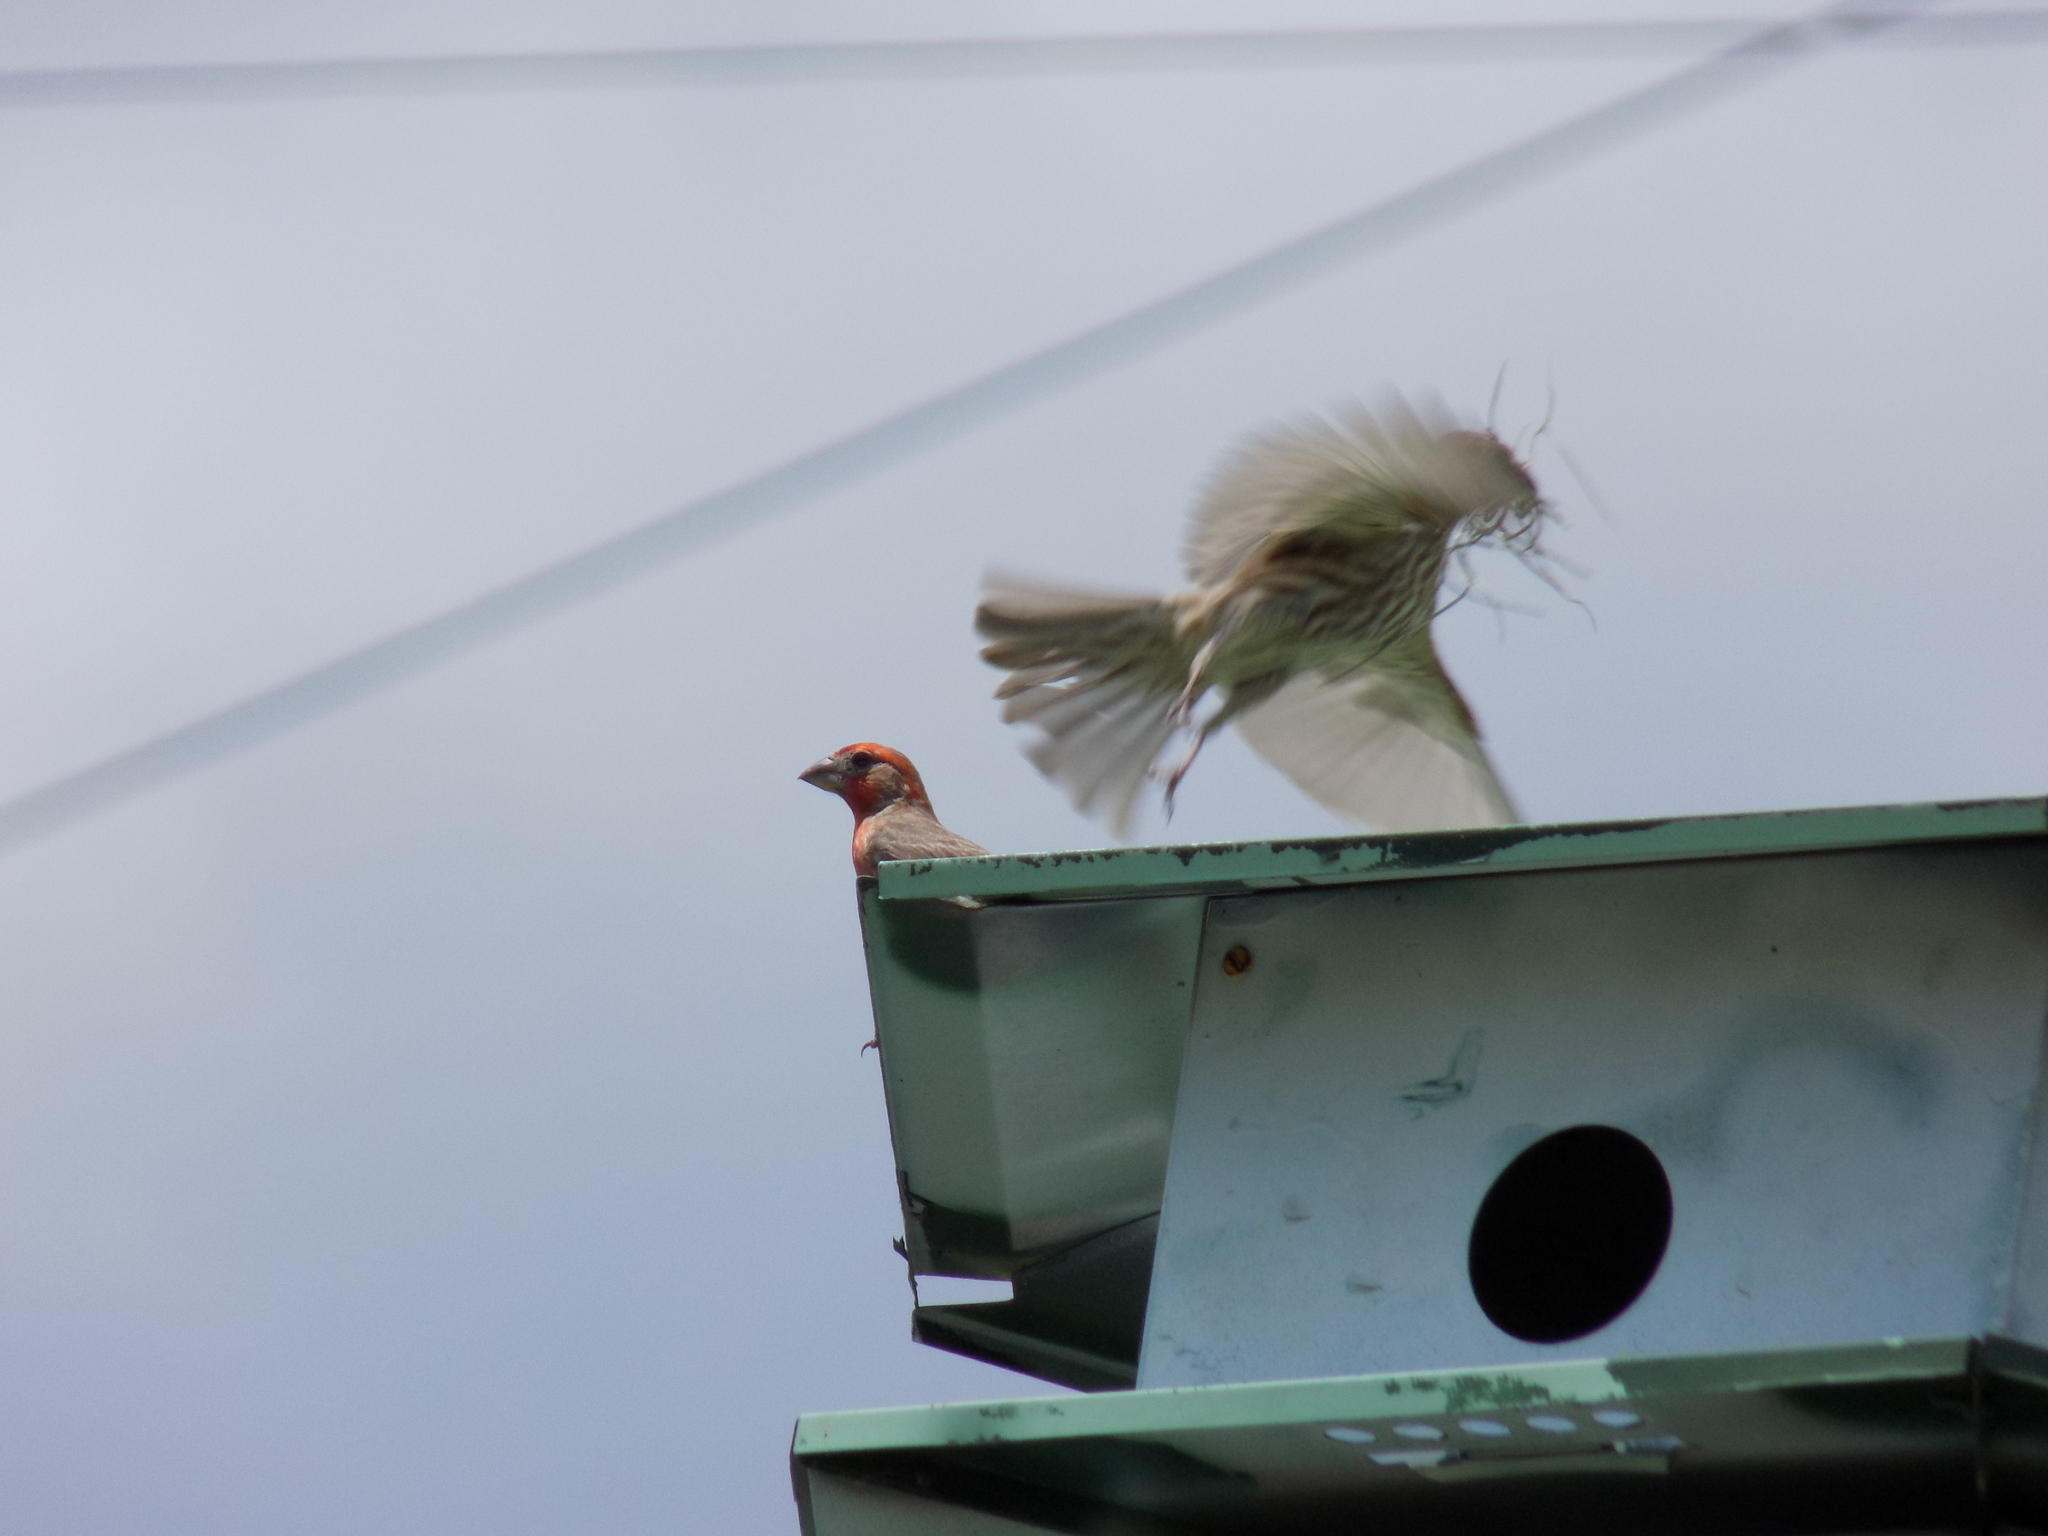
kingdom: Animalia
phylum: Chordata
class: Aves
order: Passeriformes
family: Fringillidae
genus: Haemorhous
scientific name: Haemorhous mexicanus
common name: House finch
